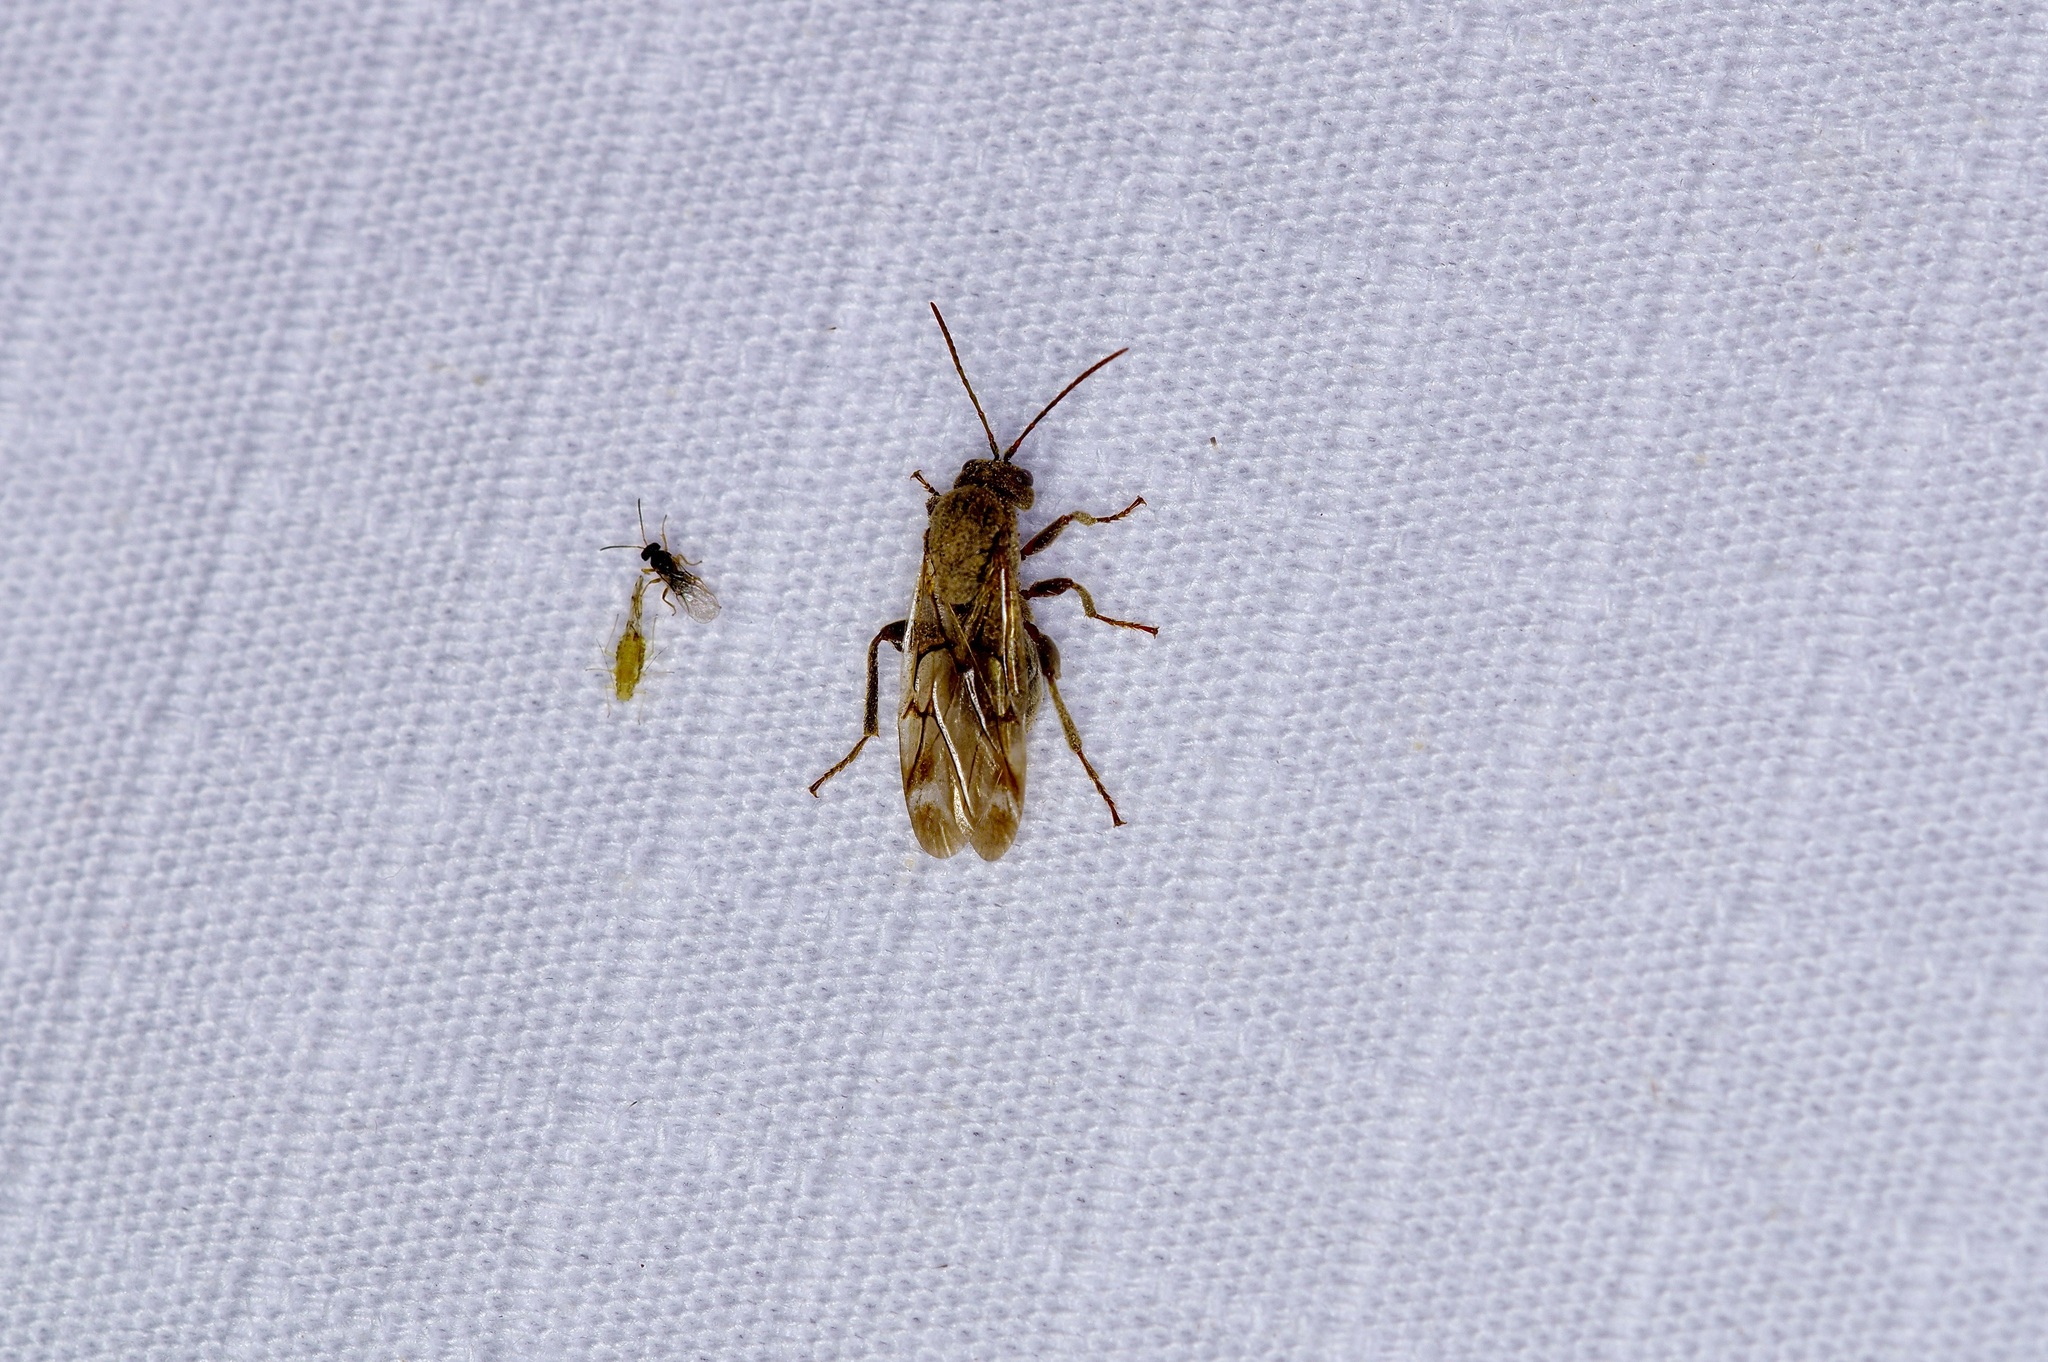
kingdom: Animalia
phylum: Arthropoda
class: Insecta
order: Hymenoptera
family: Cynipidae
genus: Odontocynips
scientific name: Odontocynips nebulosa
